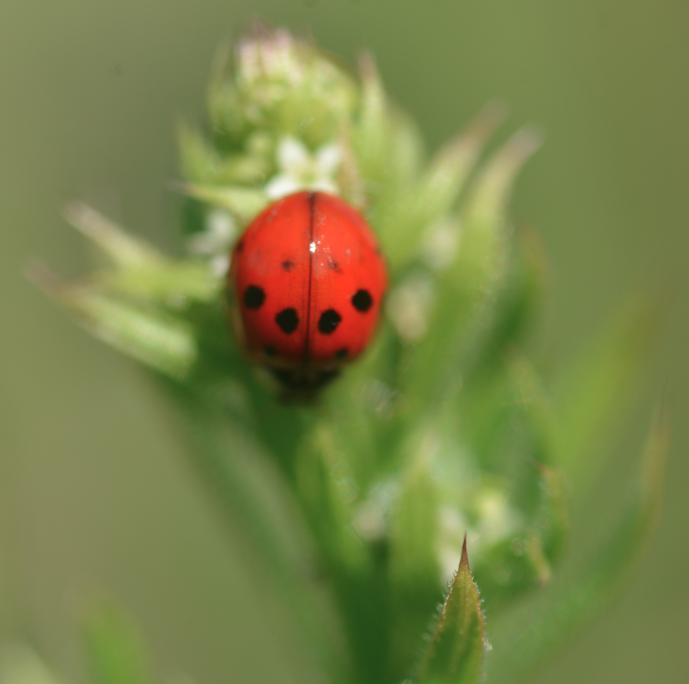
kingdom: Animalia
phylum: Arthropoda
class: Insecta
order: Coleoptera
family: Coccinellidae
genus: Harmonia
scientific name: Harmonia axyridis
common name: Harlequin ladybird
